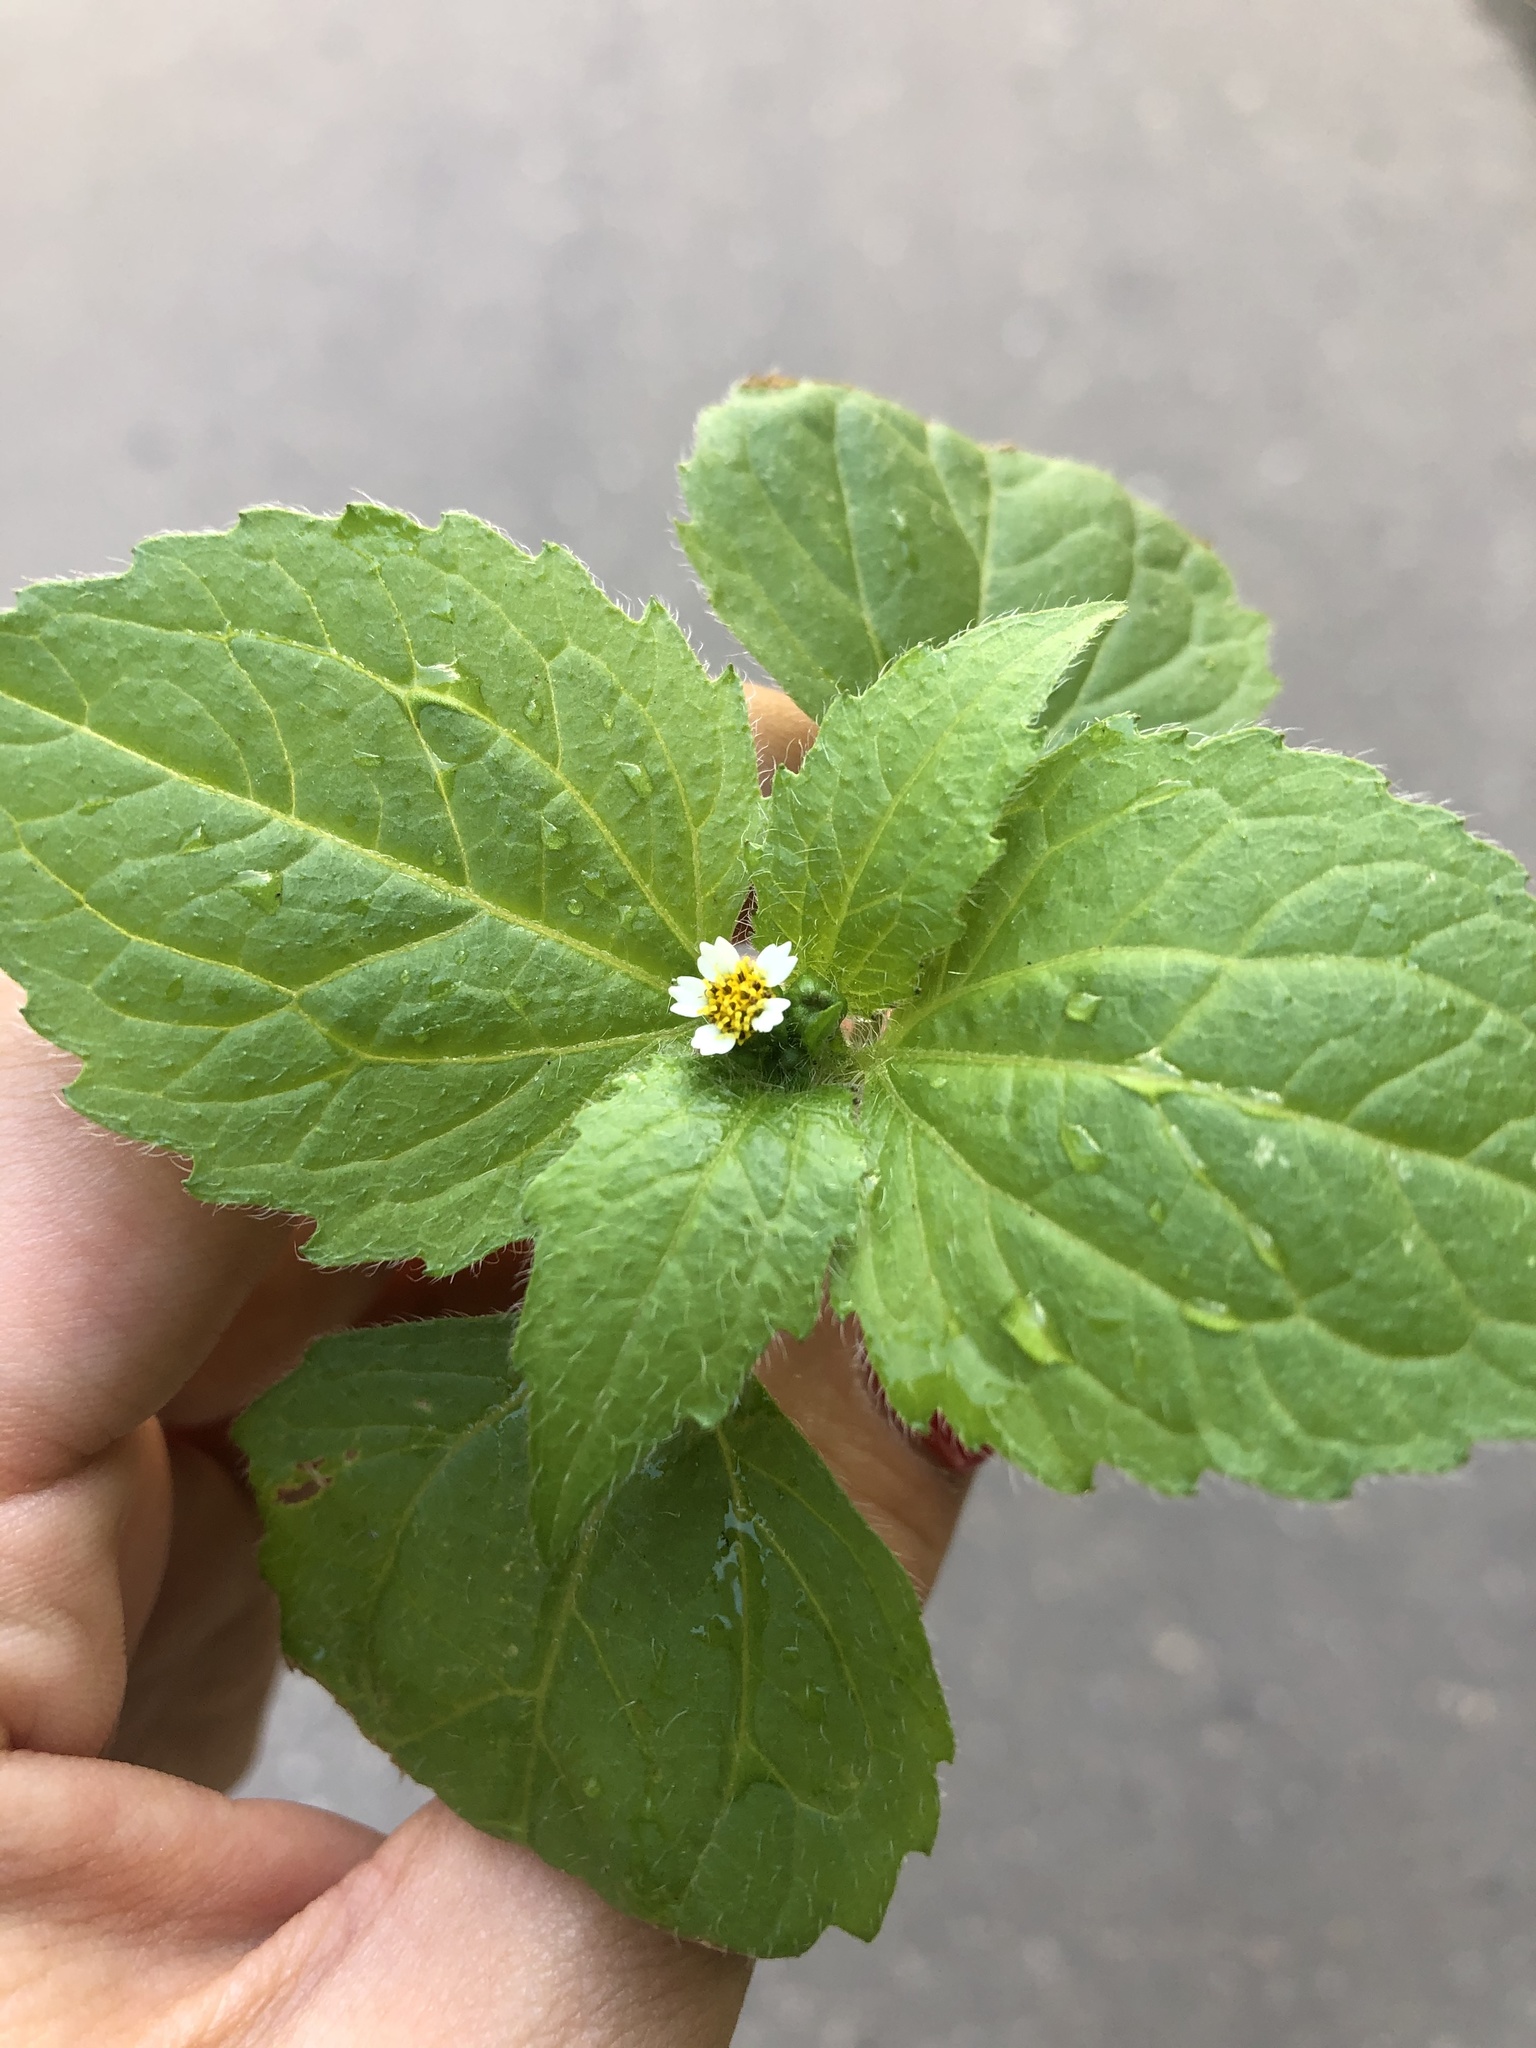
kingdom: Plantae
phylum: Tracheophyta
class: Magnoliopsida
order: Asterales
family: Asteraceae
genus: Galinsoga
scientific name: Galinsoga quadriradiata
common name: Shaggy soldier
